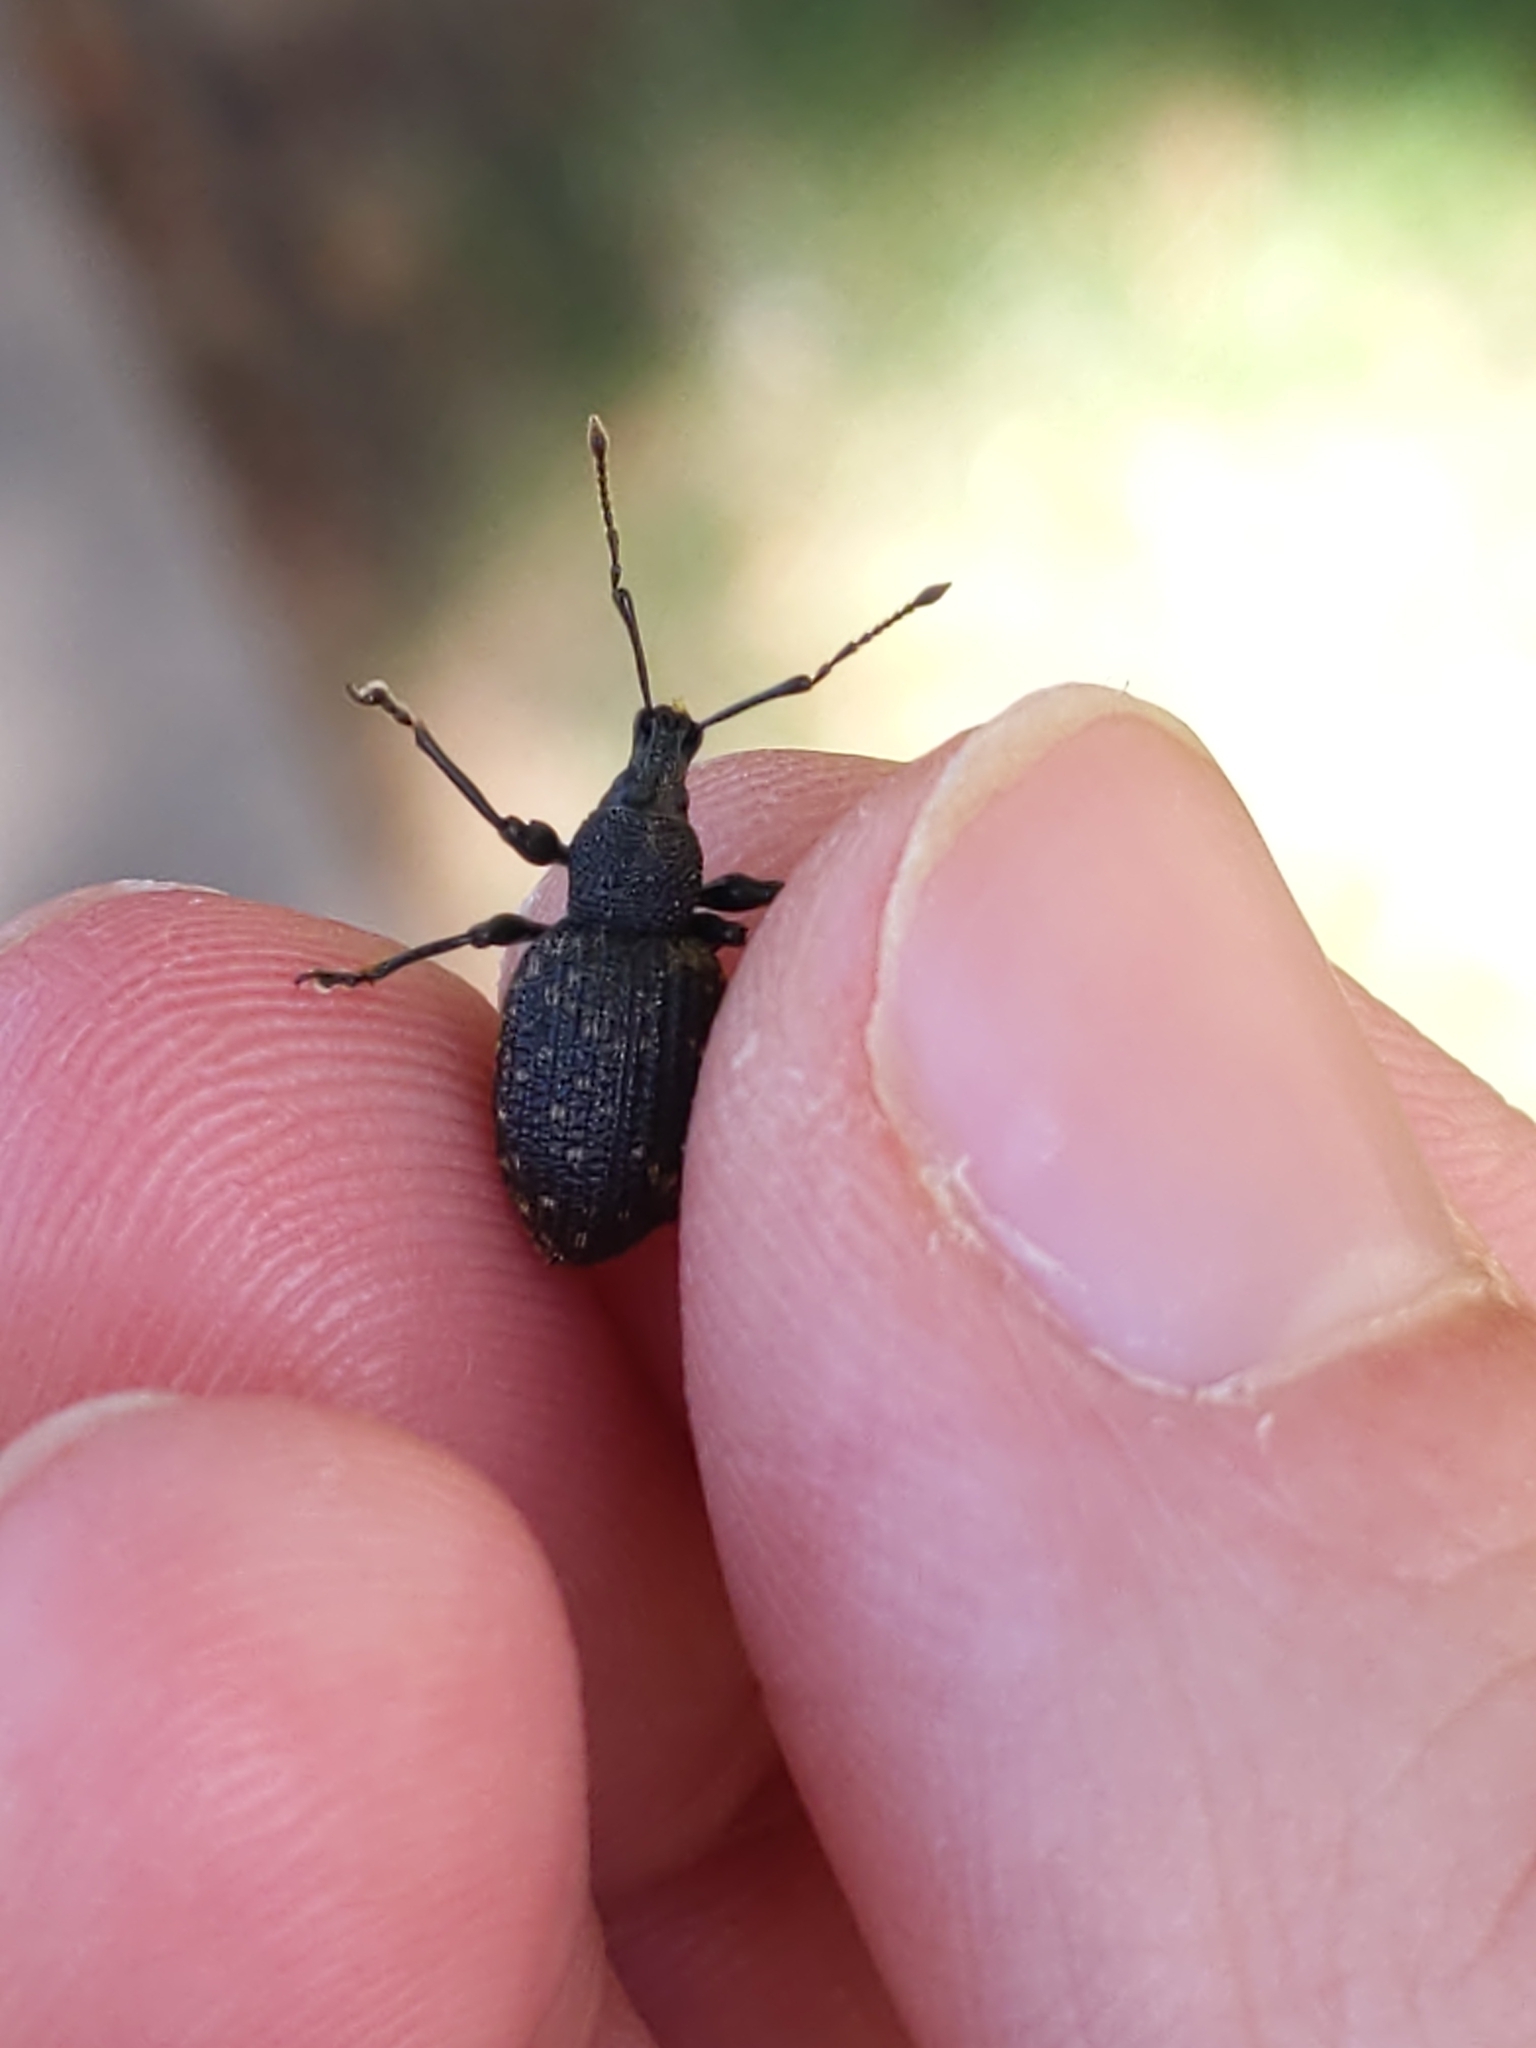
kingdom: Animalia
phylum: Arthropoda
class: Insecta
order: Coleoptera
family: Curculionidae
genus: Otiorhynchus
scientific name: Otiorhynchus sulcatus
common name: Black vine weevil
